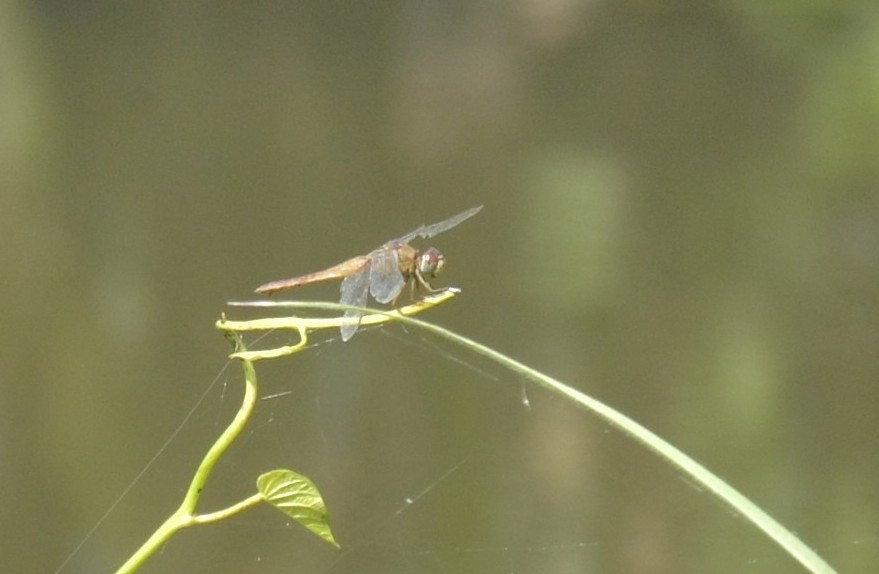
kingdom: Animalia
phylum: Arthropoda
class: Insecta
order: Odonata
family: Libellulidae
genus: Crocothemis
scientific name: Crocothemis servilia
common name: Scarlet skimmer
